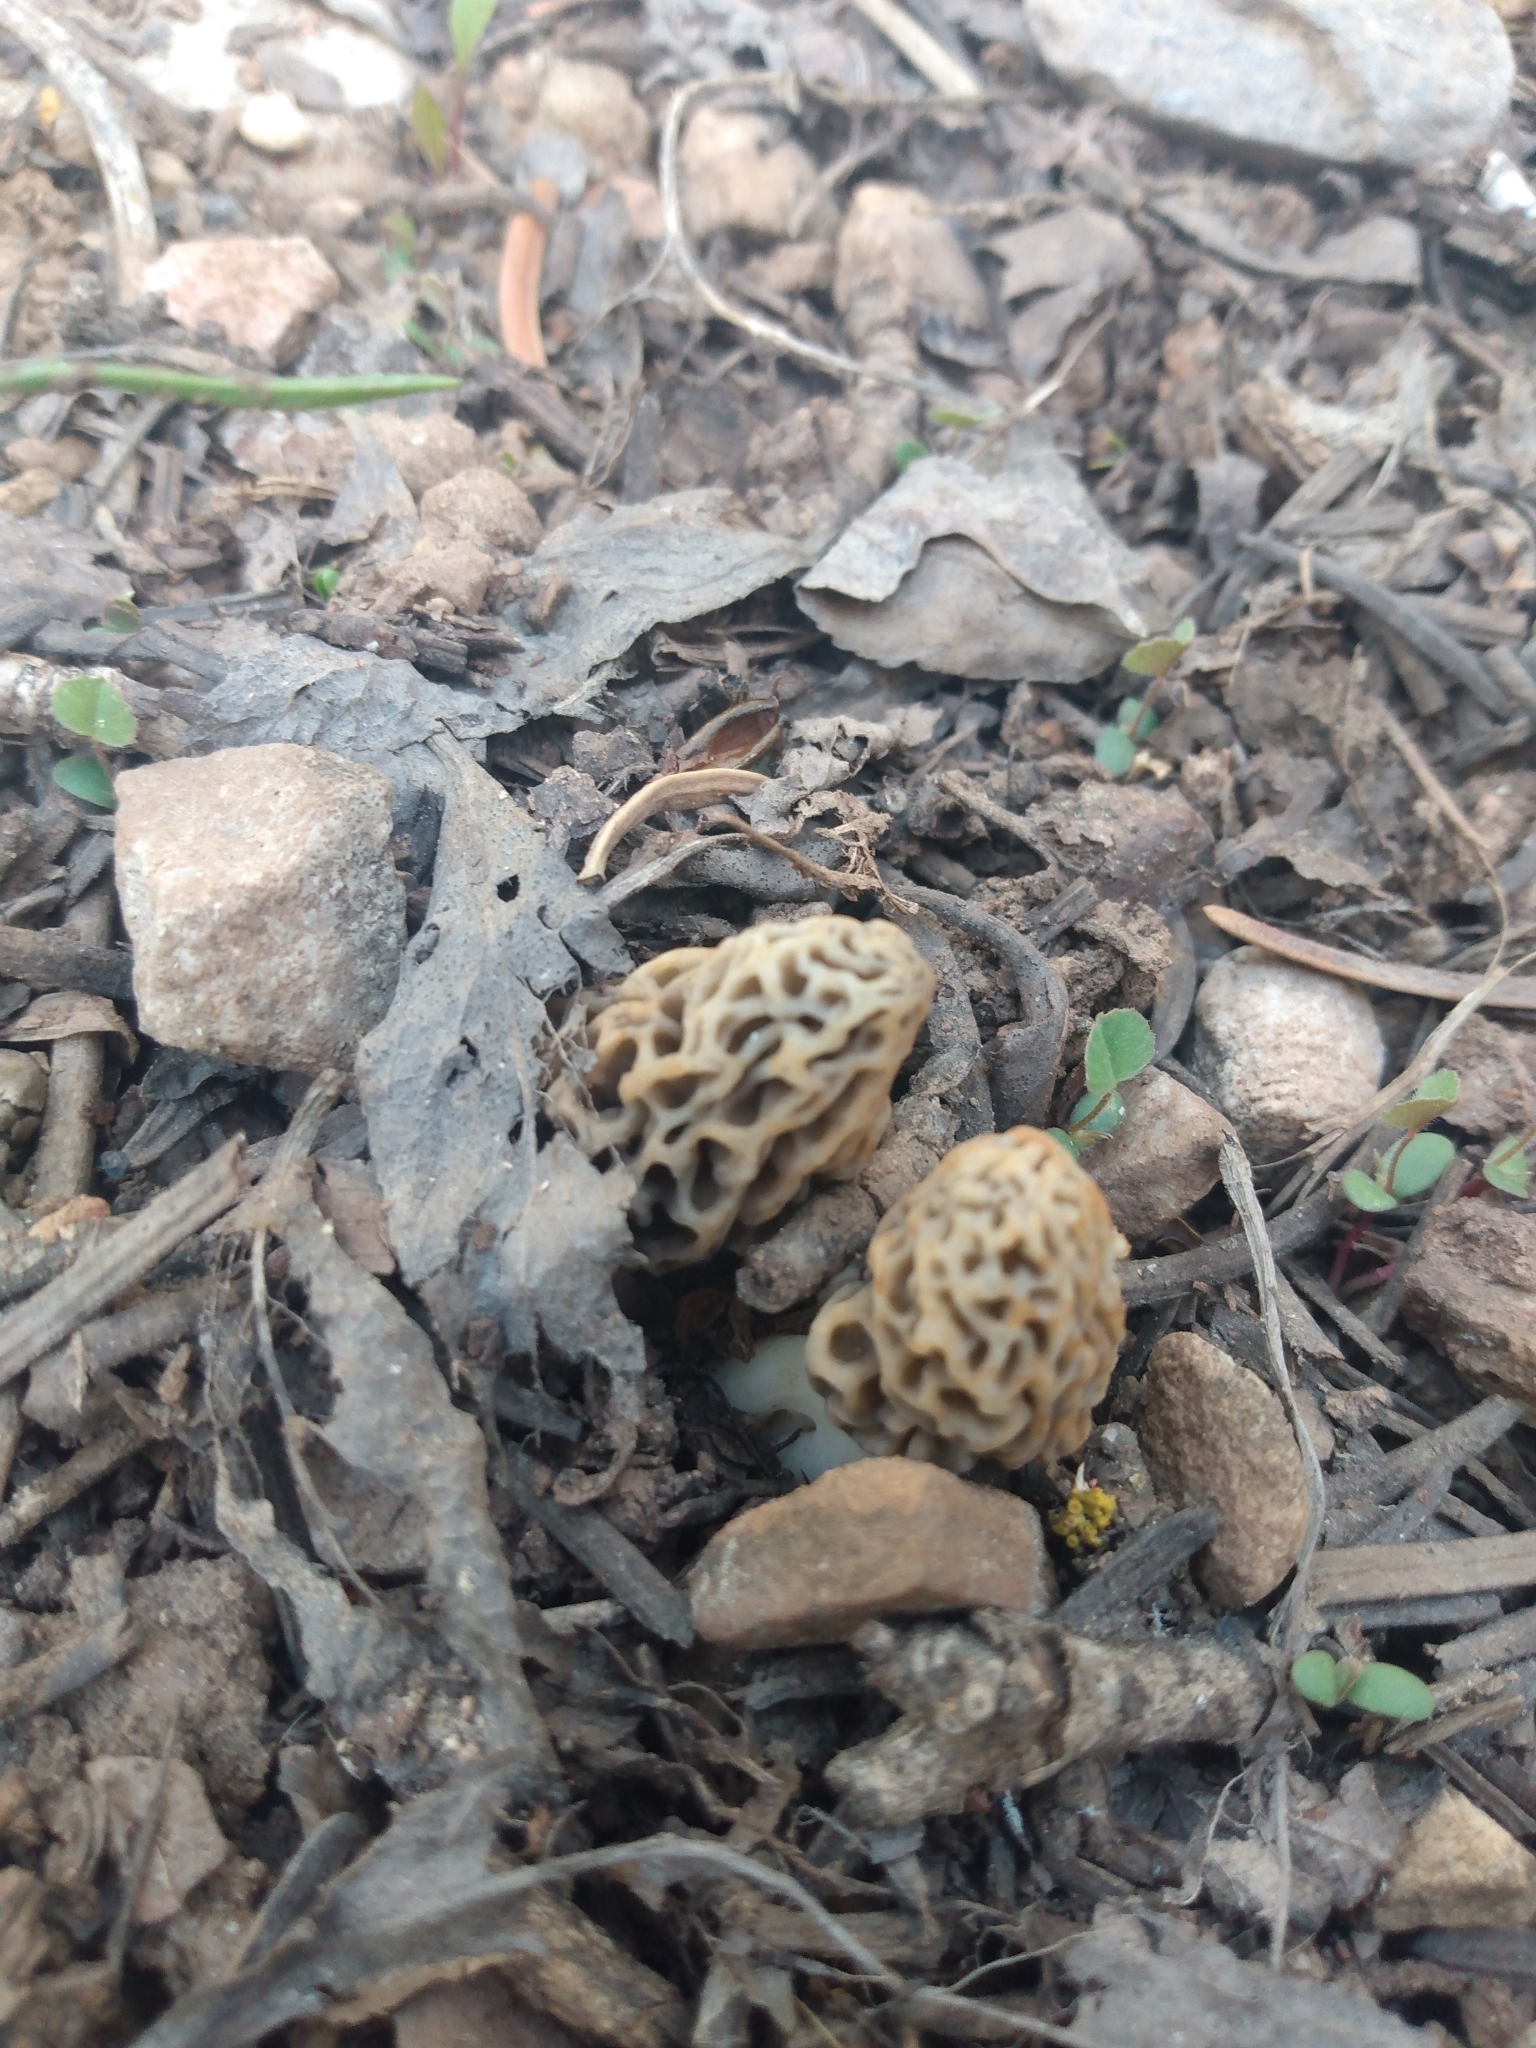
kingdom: Fungi
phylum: Ascomycota
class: Pezizomycetes
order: Pezizales
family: Morchellaceae
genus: Morchella
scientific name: Morchella americana
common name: White morel
